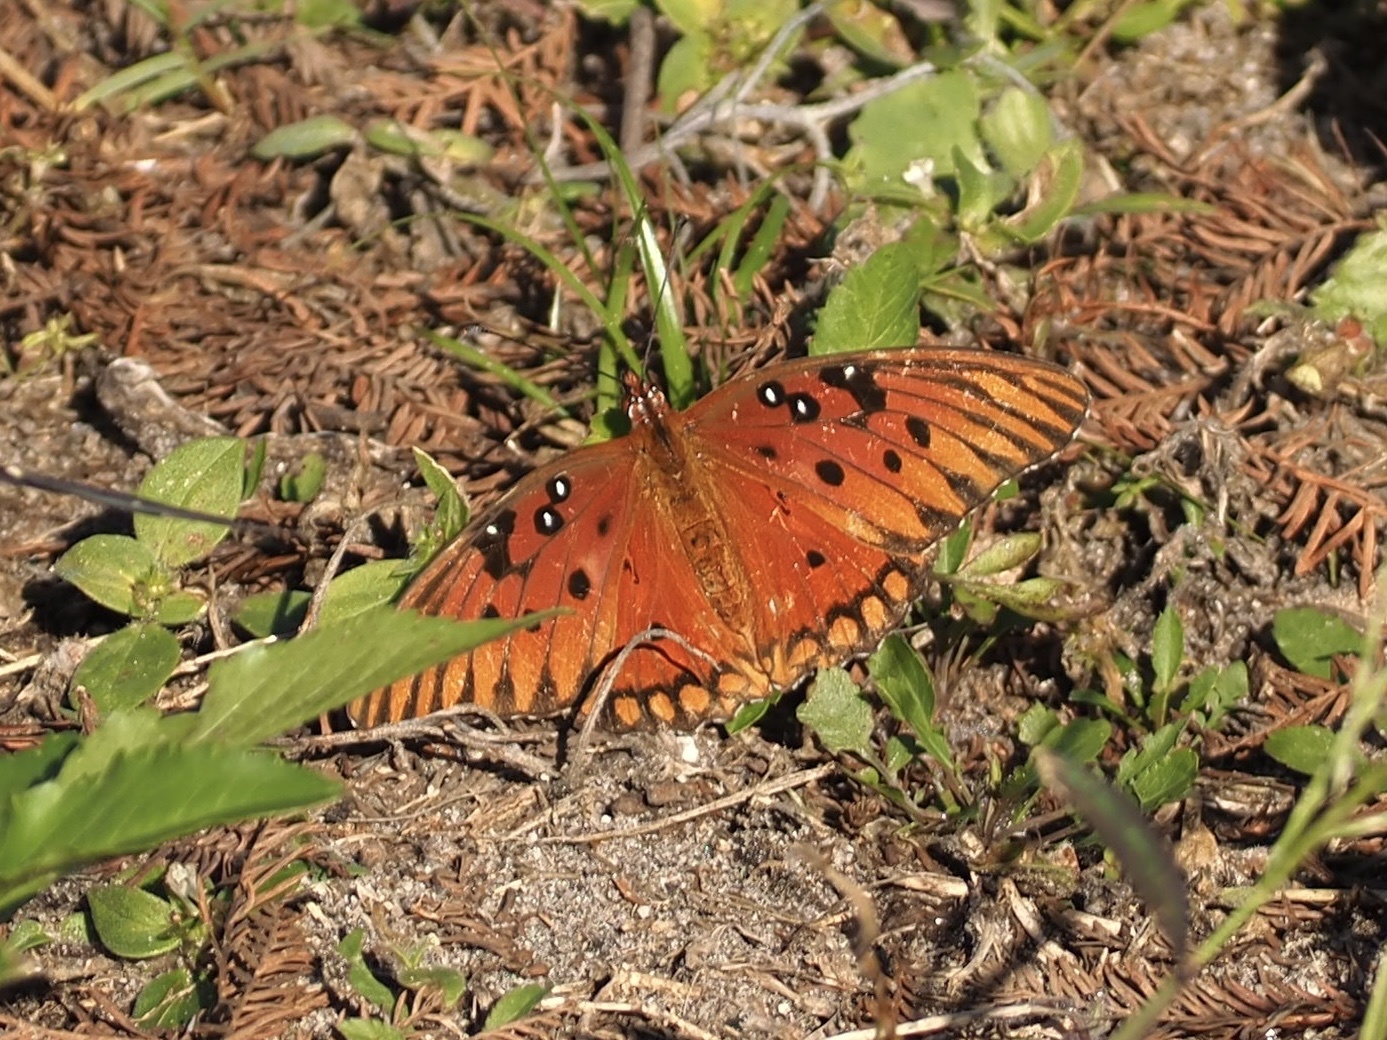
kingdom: Animalia
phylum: Arthropoda
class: Insecta
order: Lepidoptera
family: Nymphalidae
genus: Dione
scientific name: Dione vanillae
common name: Gulf fritillary
